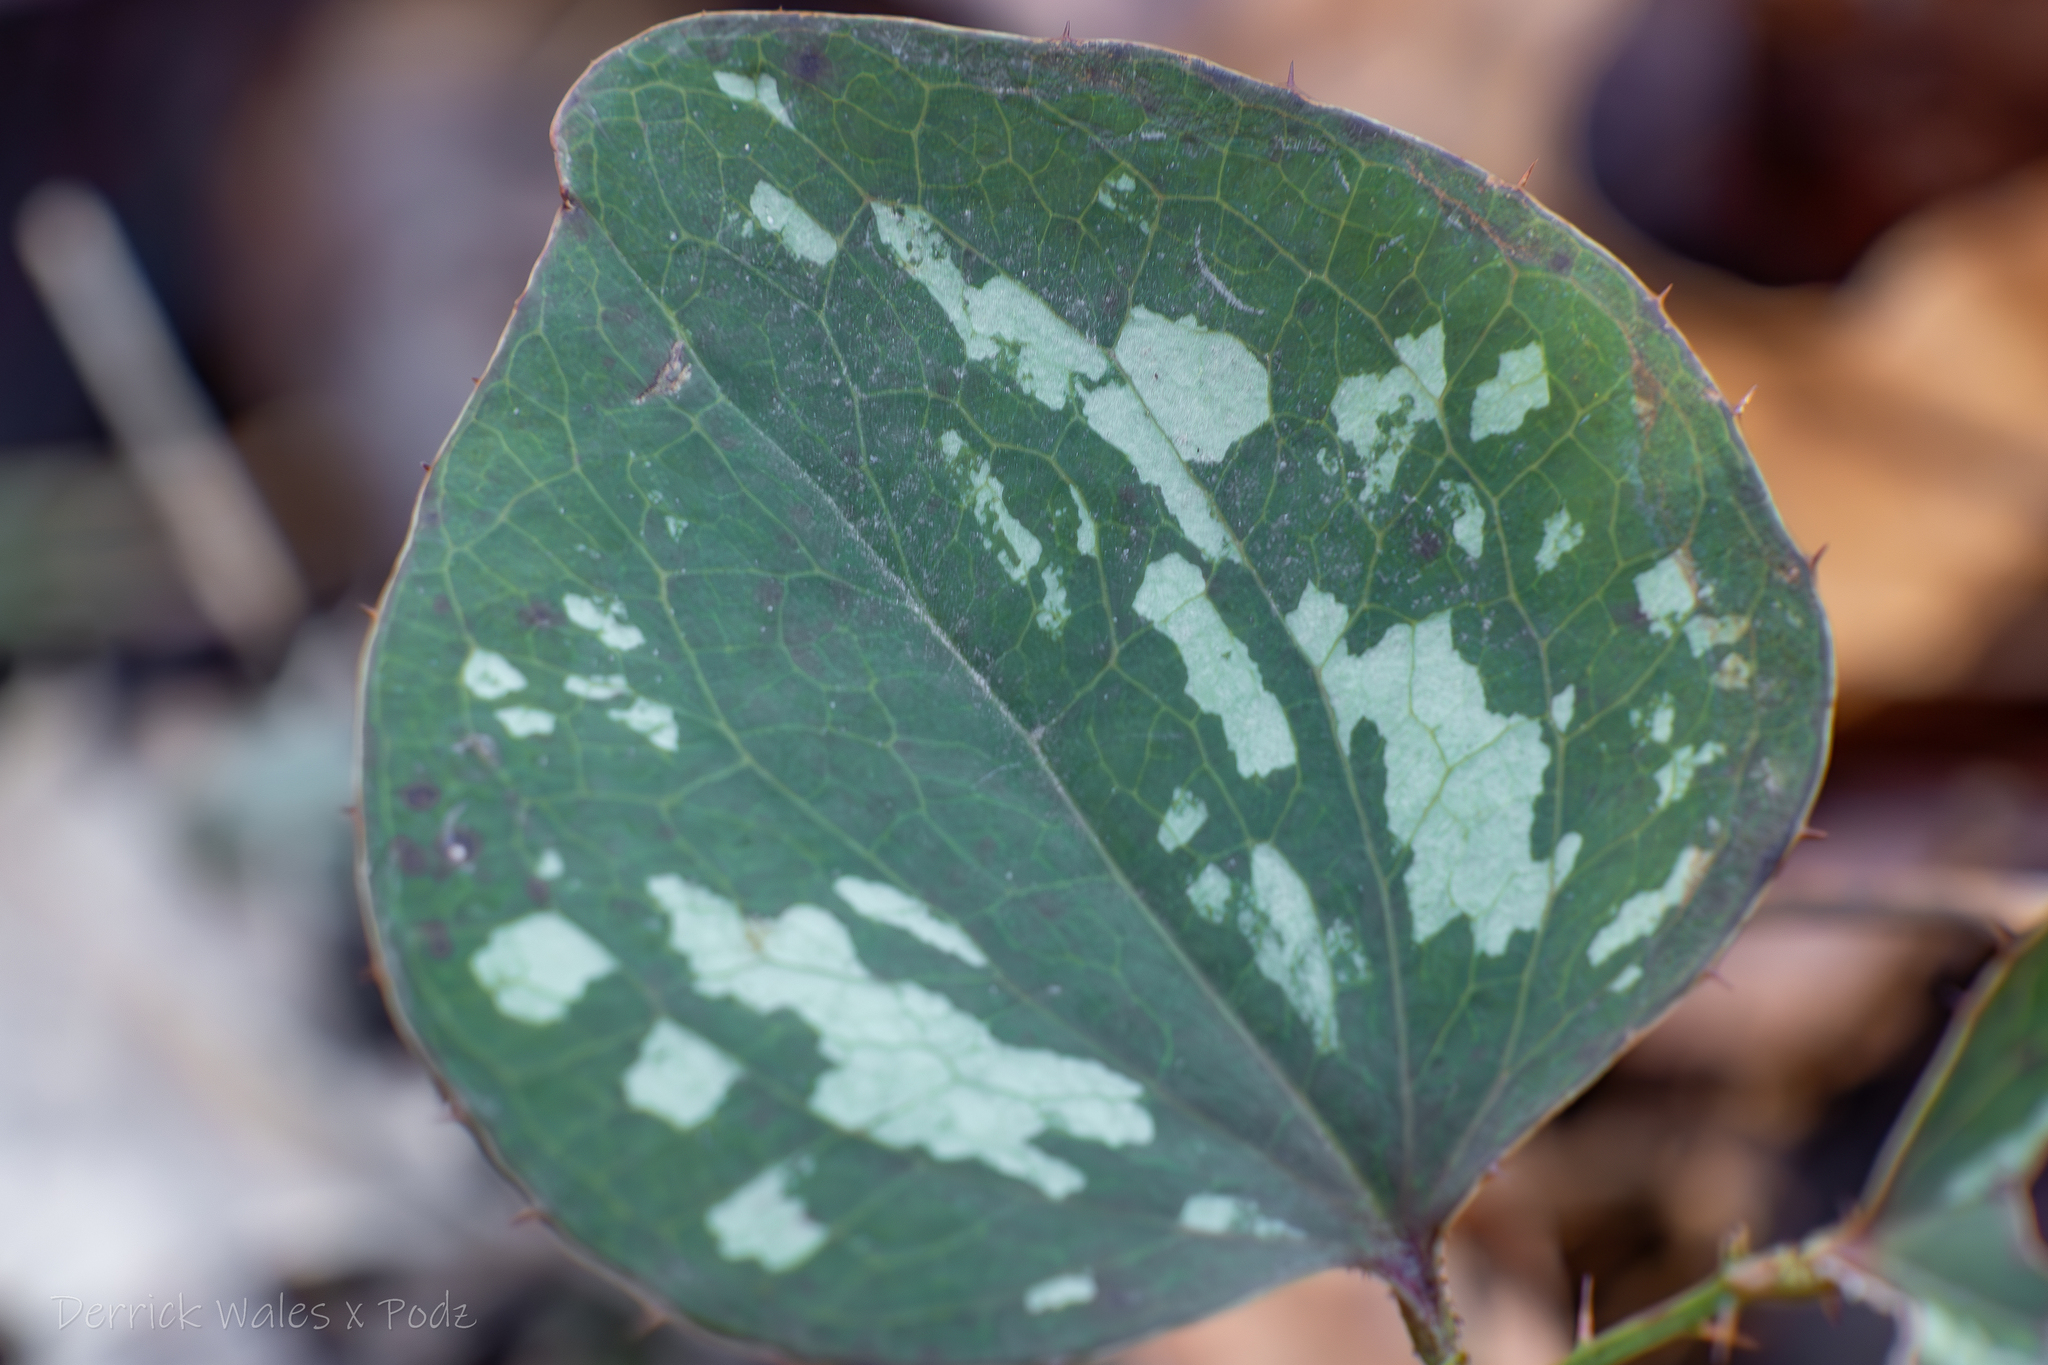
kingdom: Plantae
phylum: Tracheophyta
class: Liliopsida
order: Liliales
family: Smilacaceae
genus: Smilax
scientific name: Smilax bona-nox
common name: Catbrier
